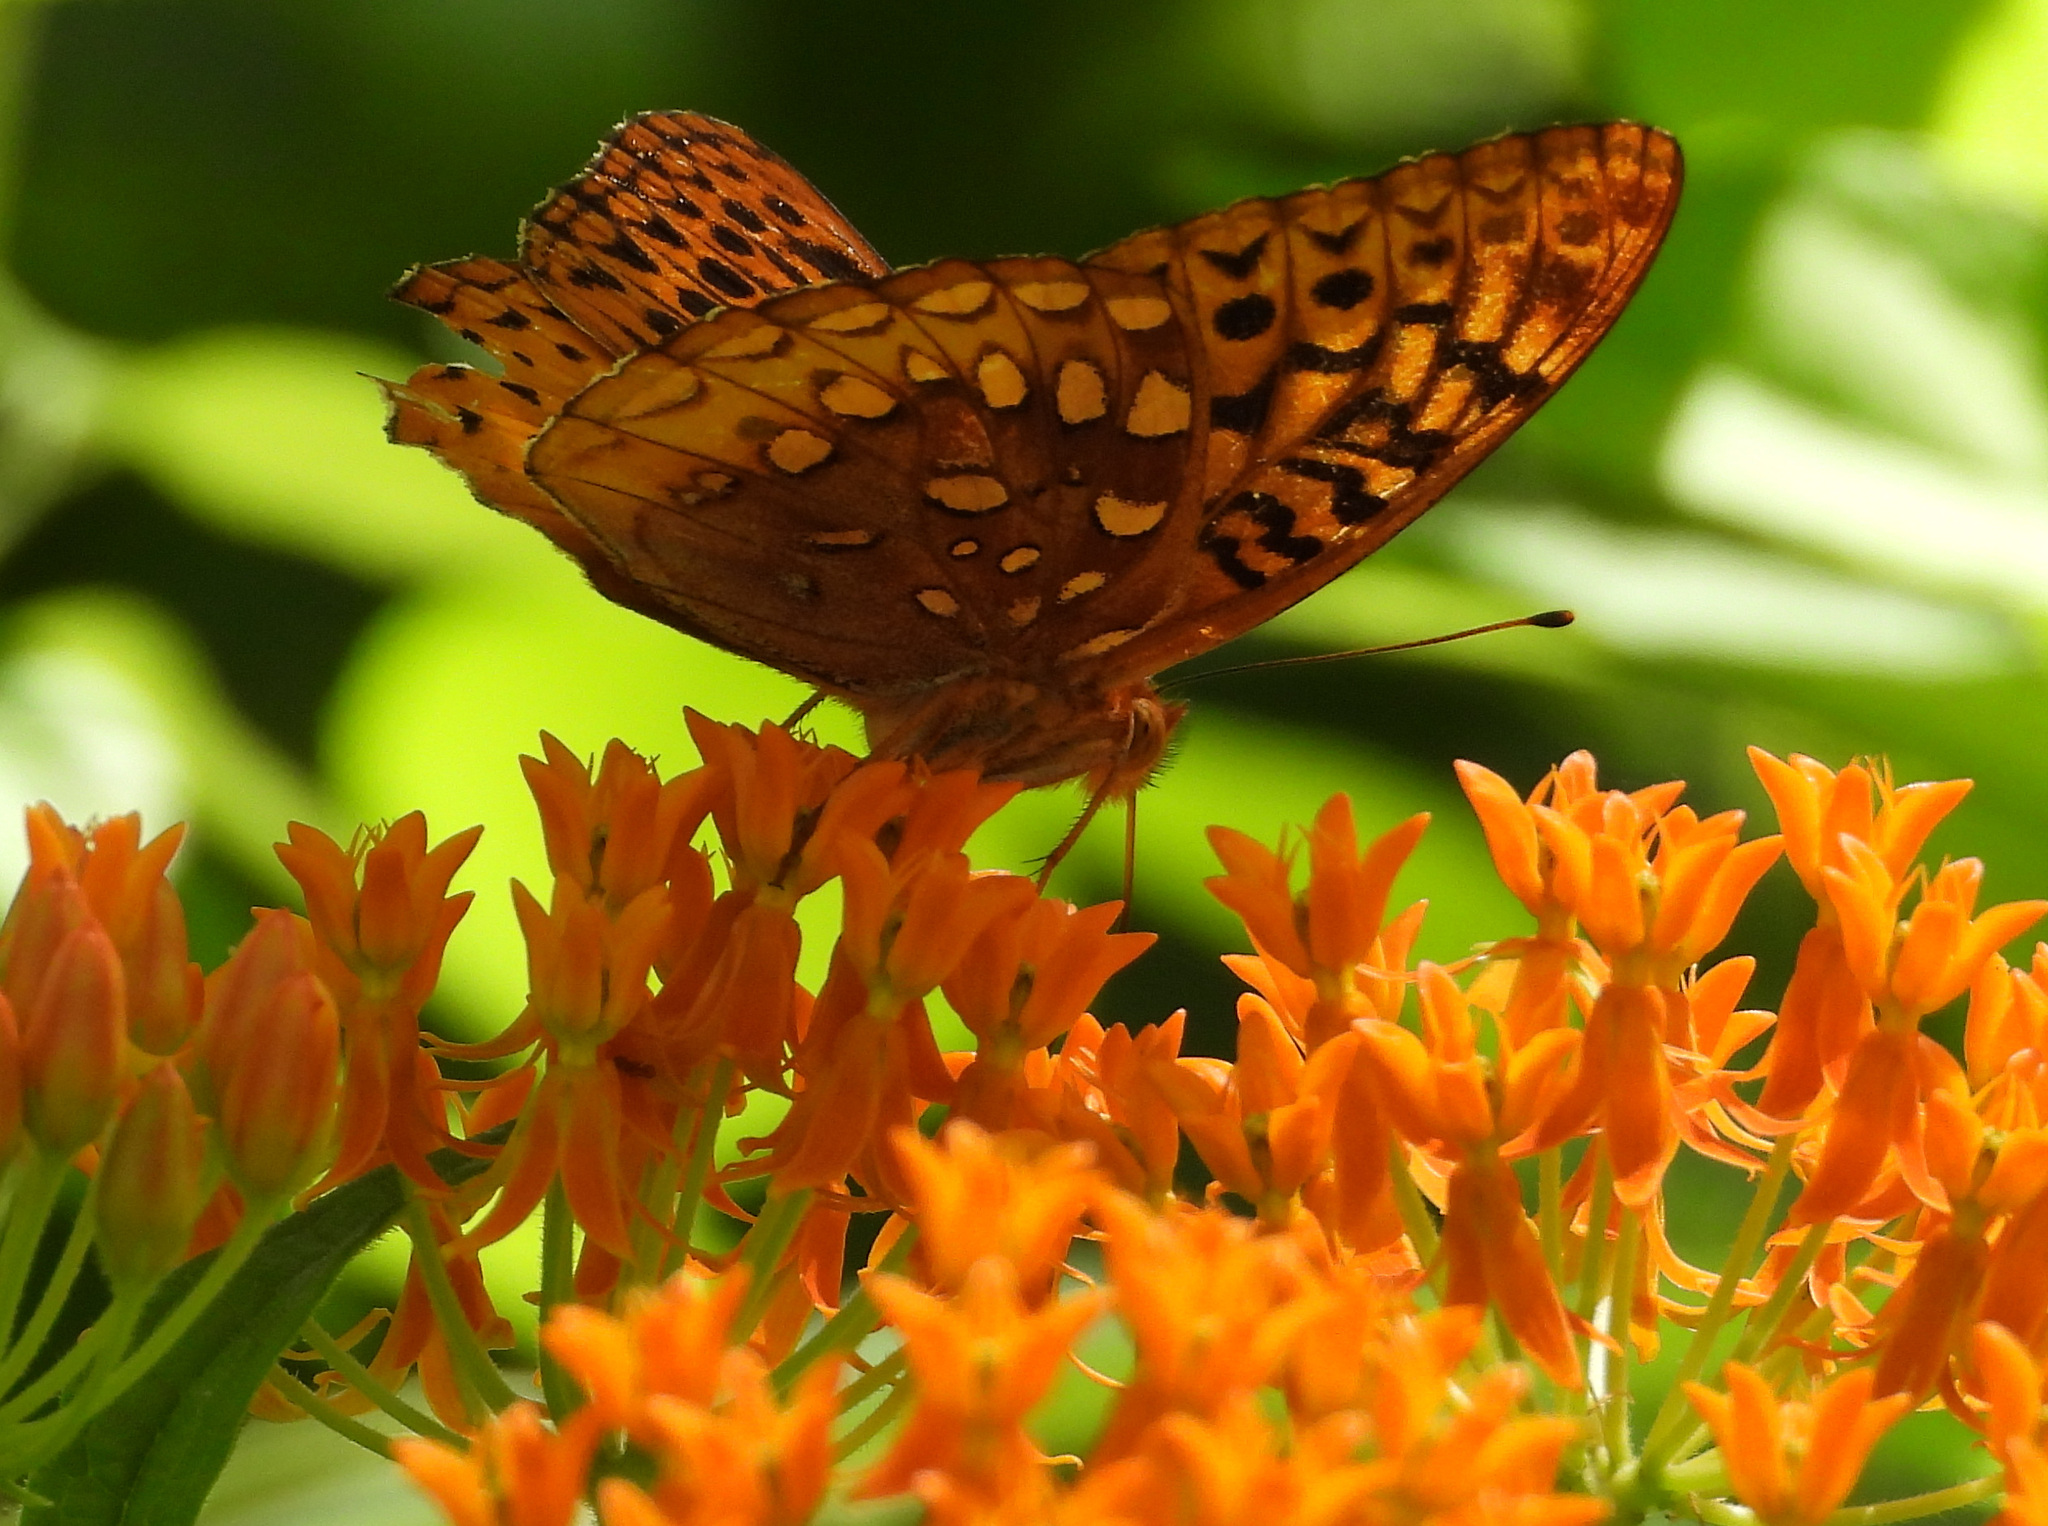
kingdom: Animalia
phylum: Arthropoda
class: Insecta
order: Lepidoptera
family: Nymphalidae
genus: Speyeria
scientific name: Speyeria cybele
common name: Great spangled fritillary
